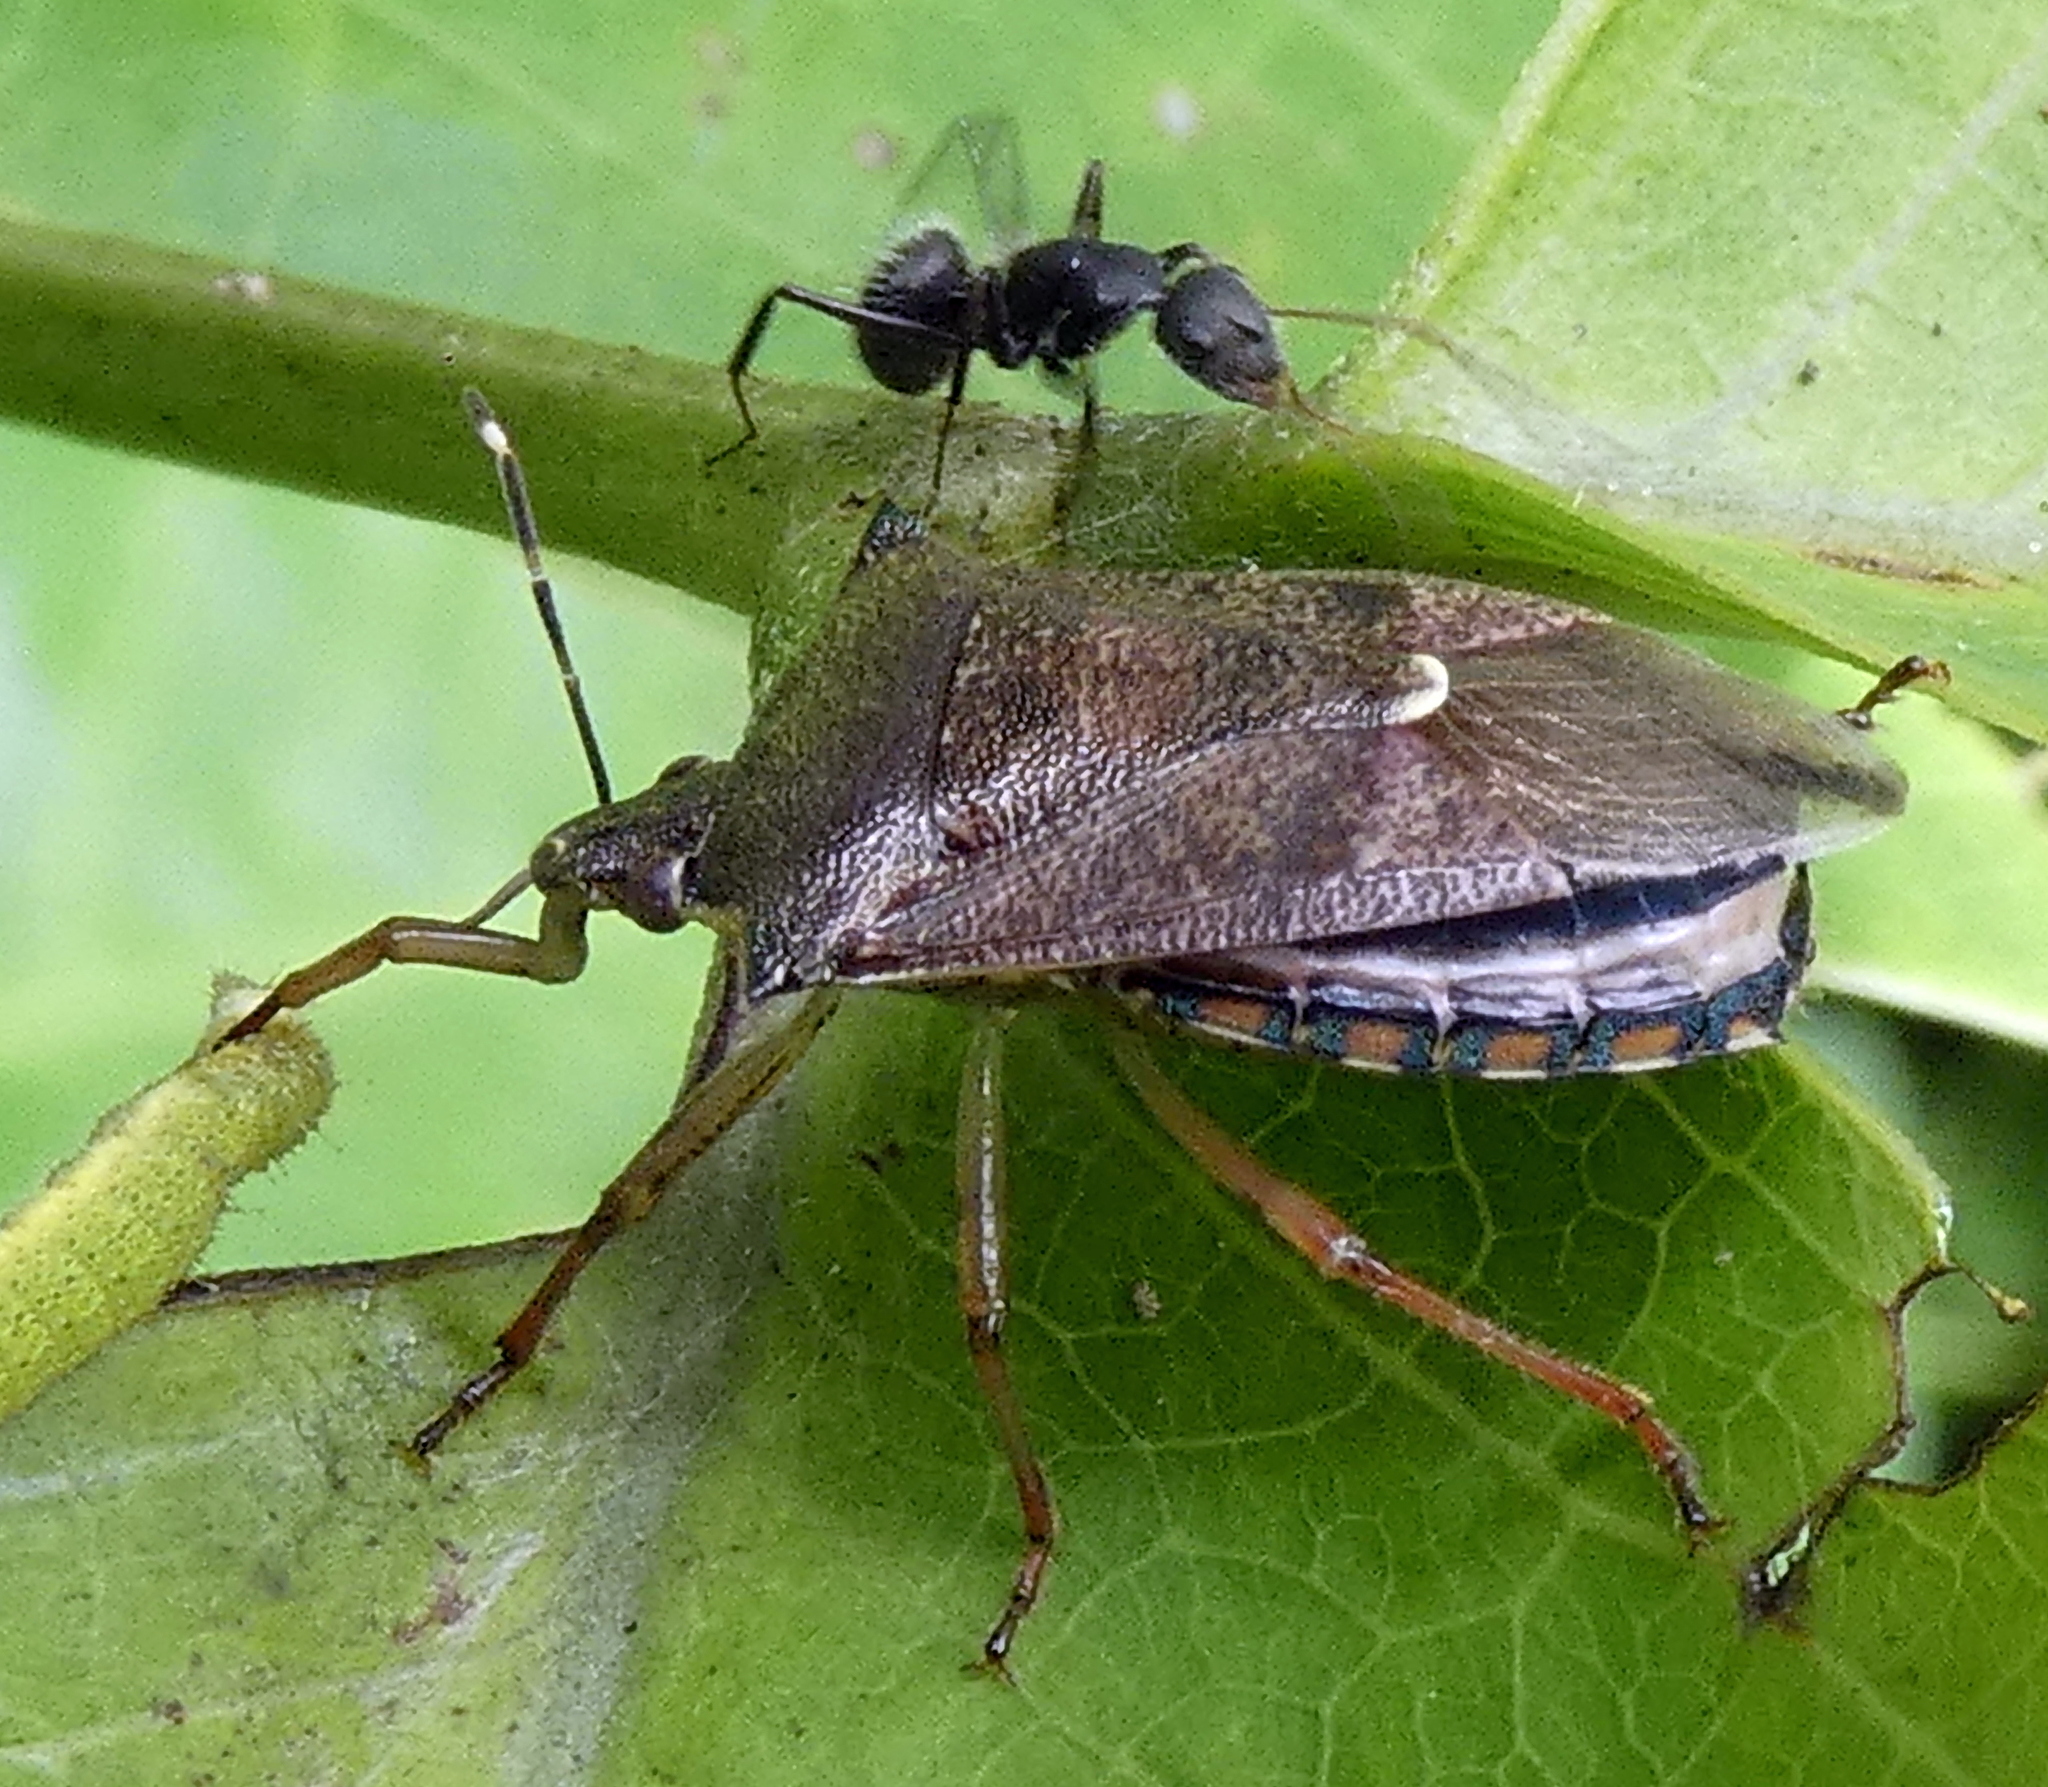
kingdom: Animalia
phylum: Arthropoda
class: Insecta
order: Hemiptera
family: Pentatomidae
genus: Podisus
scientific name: Podisus nigrispinus
